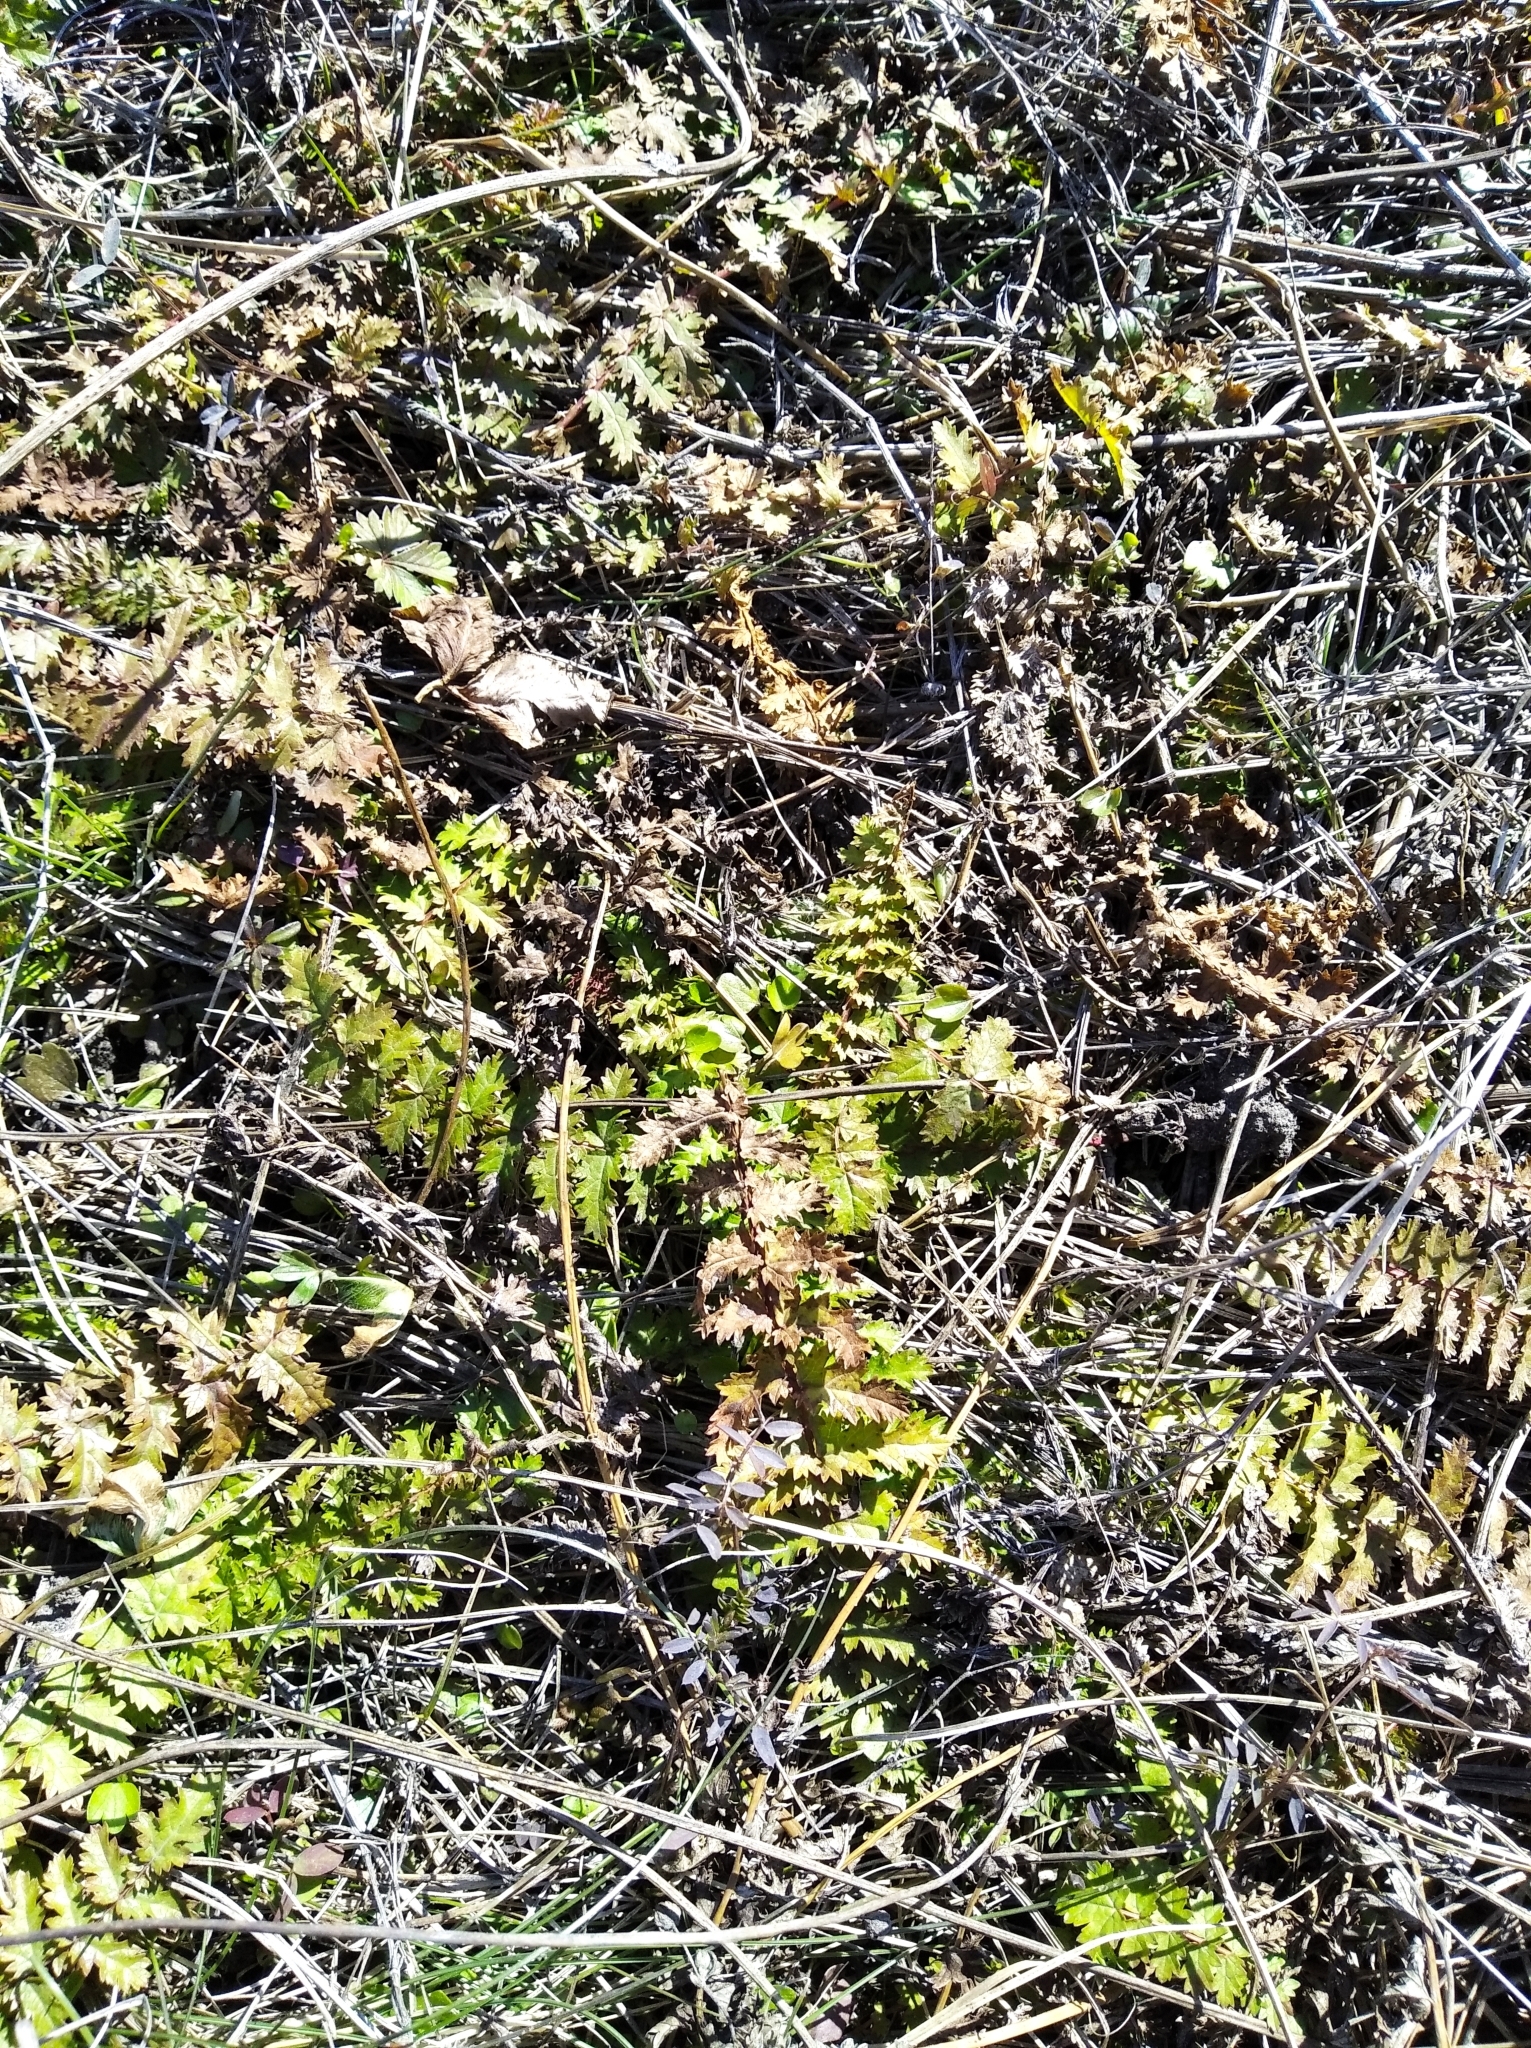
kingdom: Plantae
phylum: Tracheophyta
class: Magnoliopsida
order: Rosales
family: Rosaceae
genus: Filipendula
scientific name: Filipendula vulgaris
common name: Dropwort
